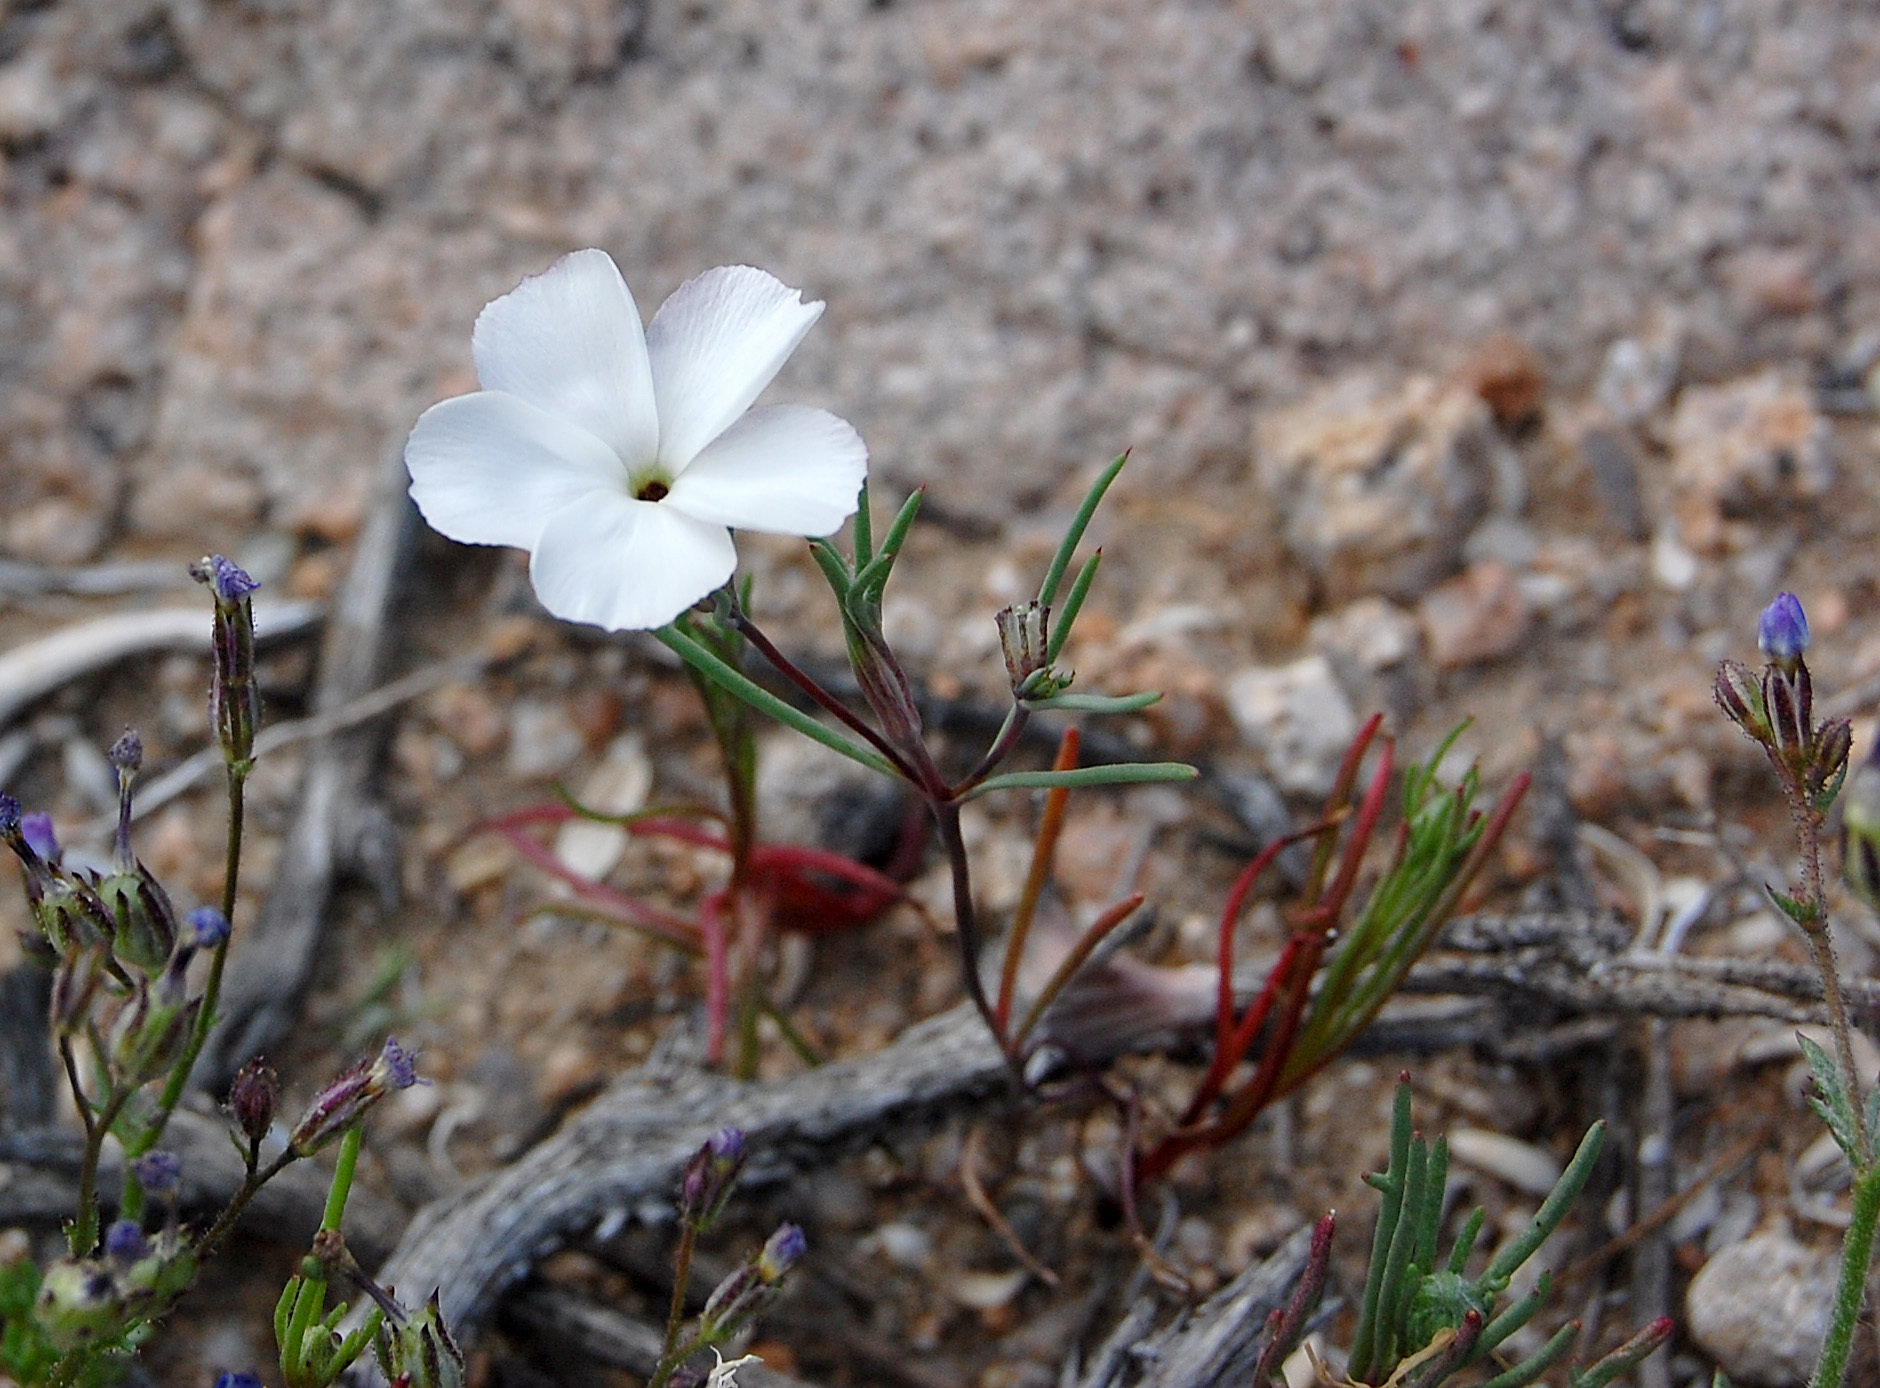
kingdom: Plantae
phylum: Tracheophyta
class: Magnoliopsida
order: Ericales
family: Polemoniaceae
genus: Linanthus
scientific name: Linanthus dichotomus
